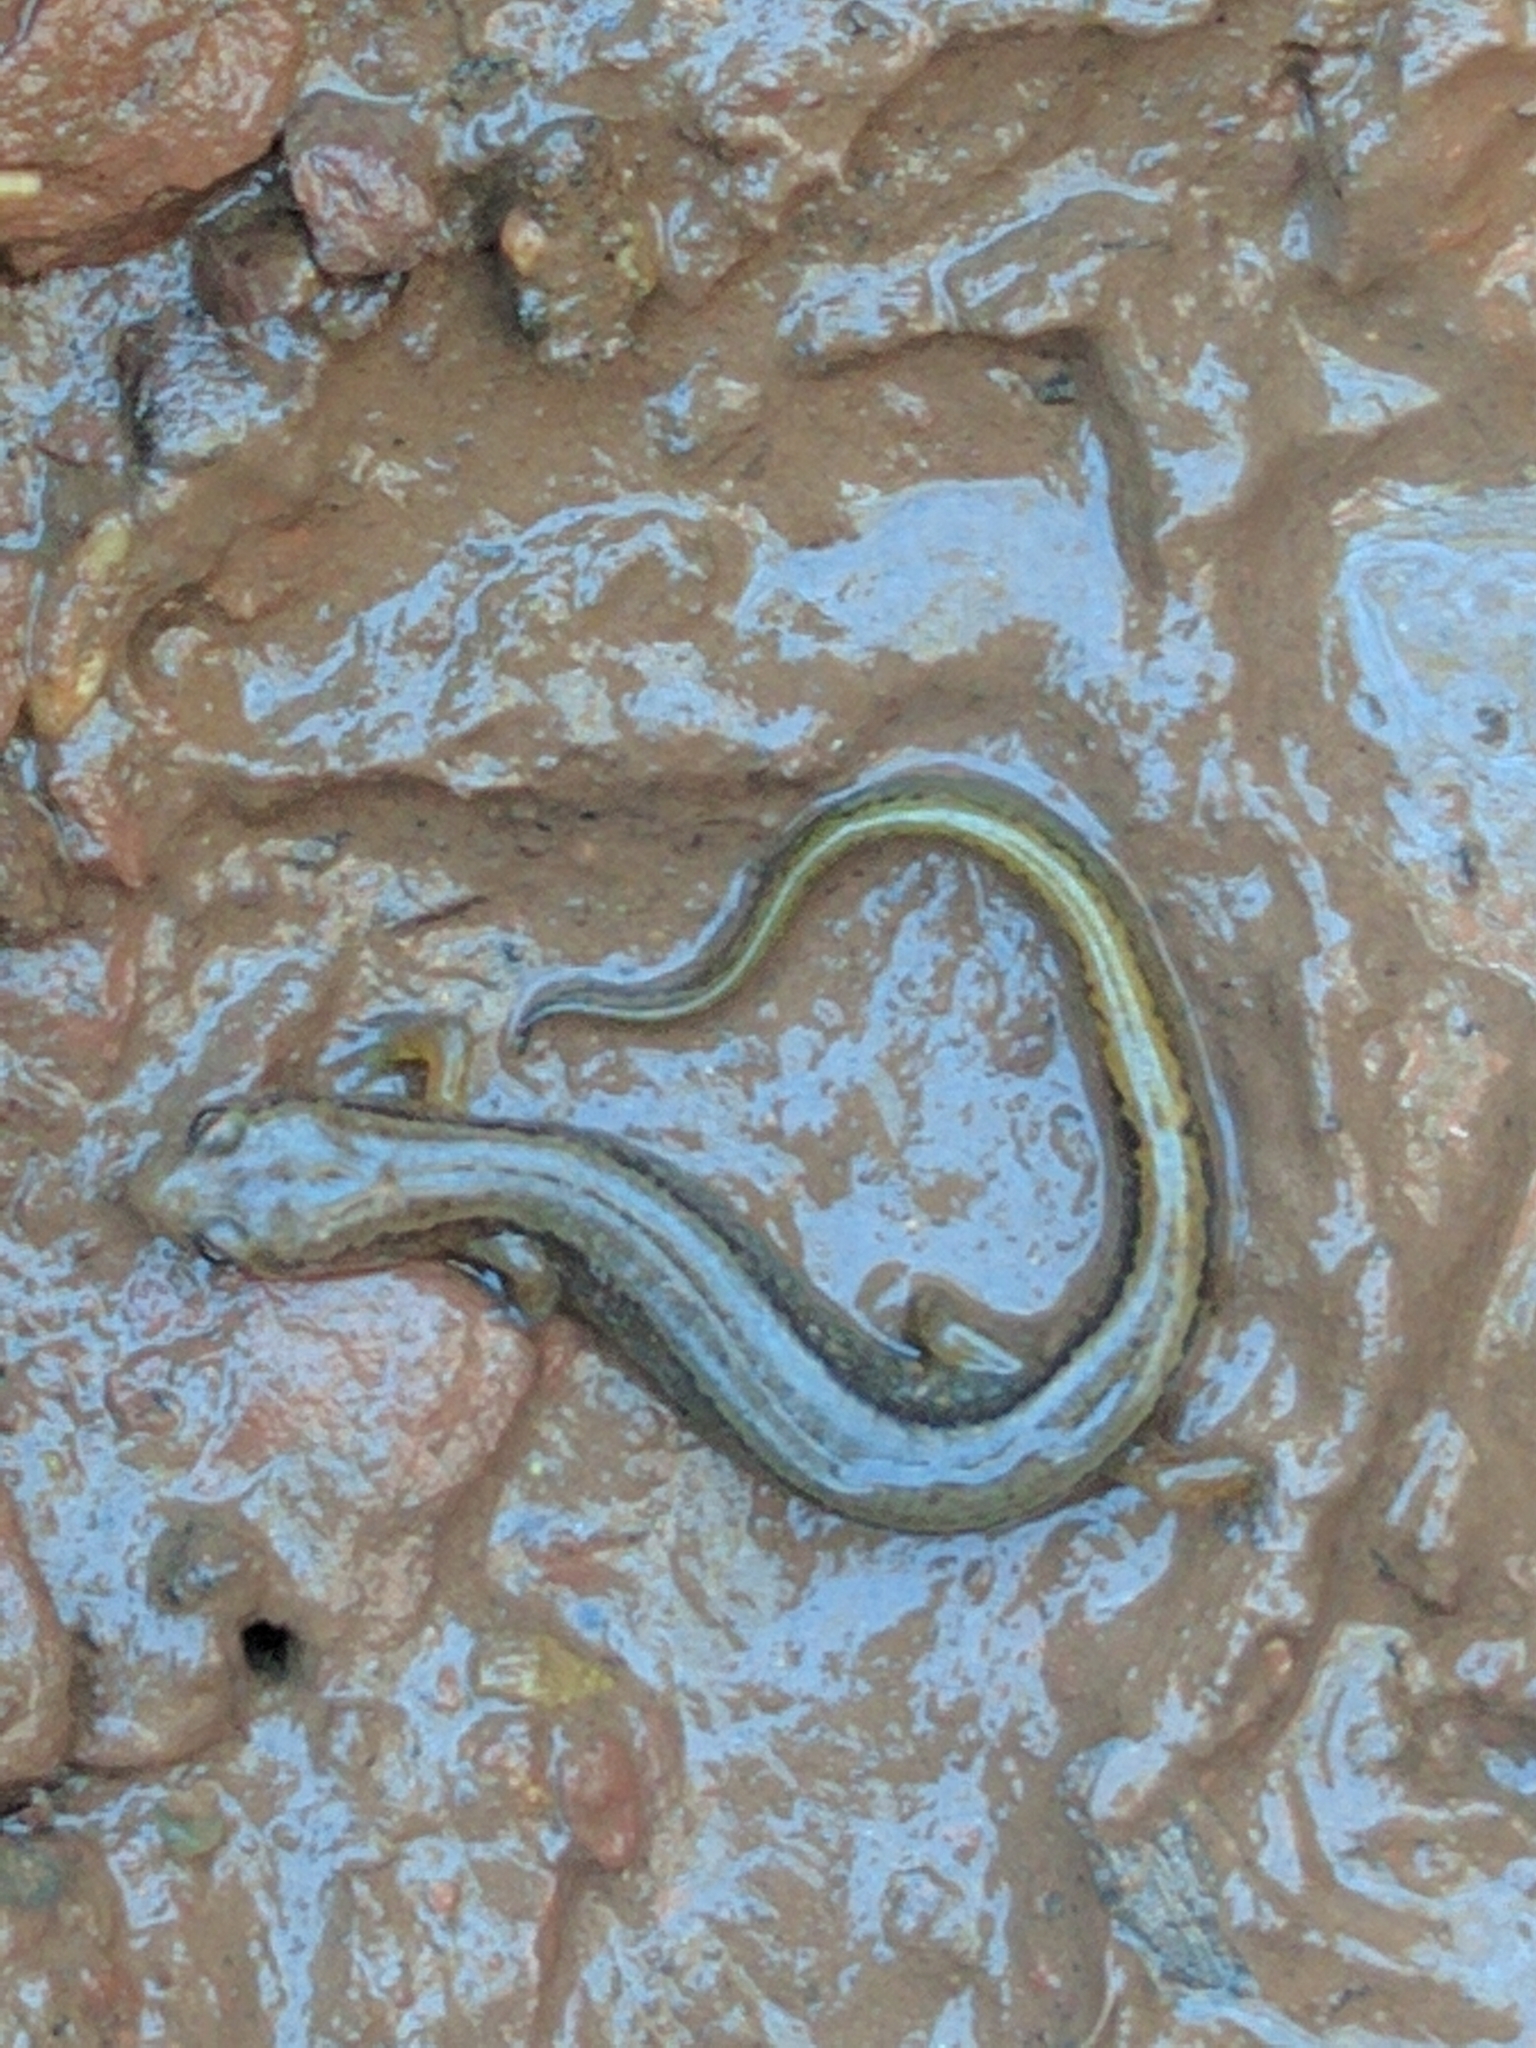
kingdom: Animalia
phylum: Chordata
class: Amphibia
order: Caudata
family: Plethodontidae
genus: Eurycea
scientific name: Eurycea bislineata
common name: Northern two-lined salamander
